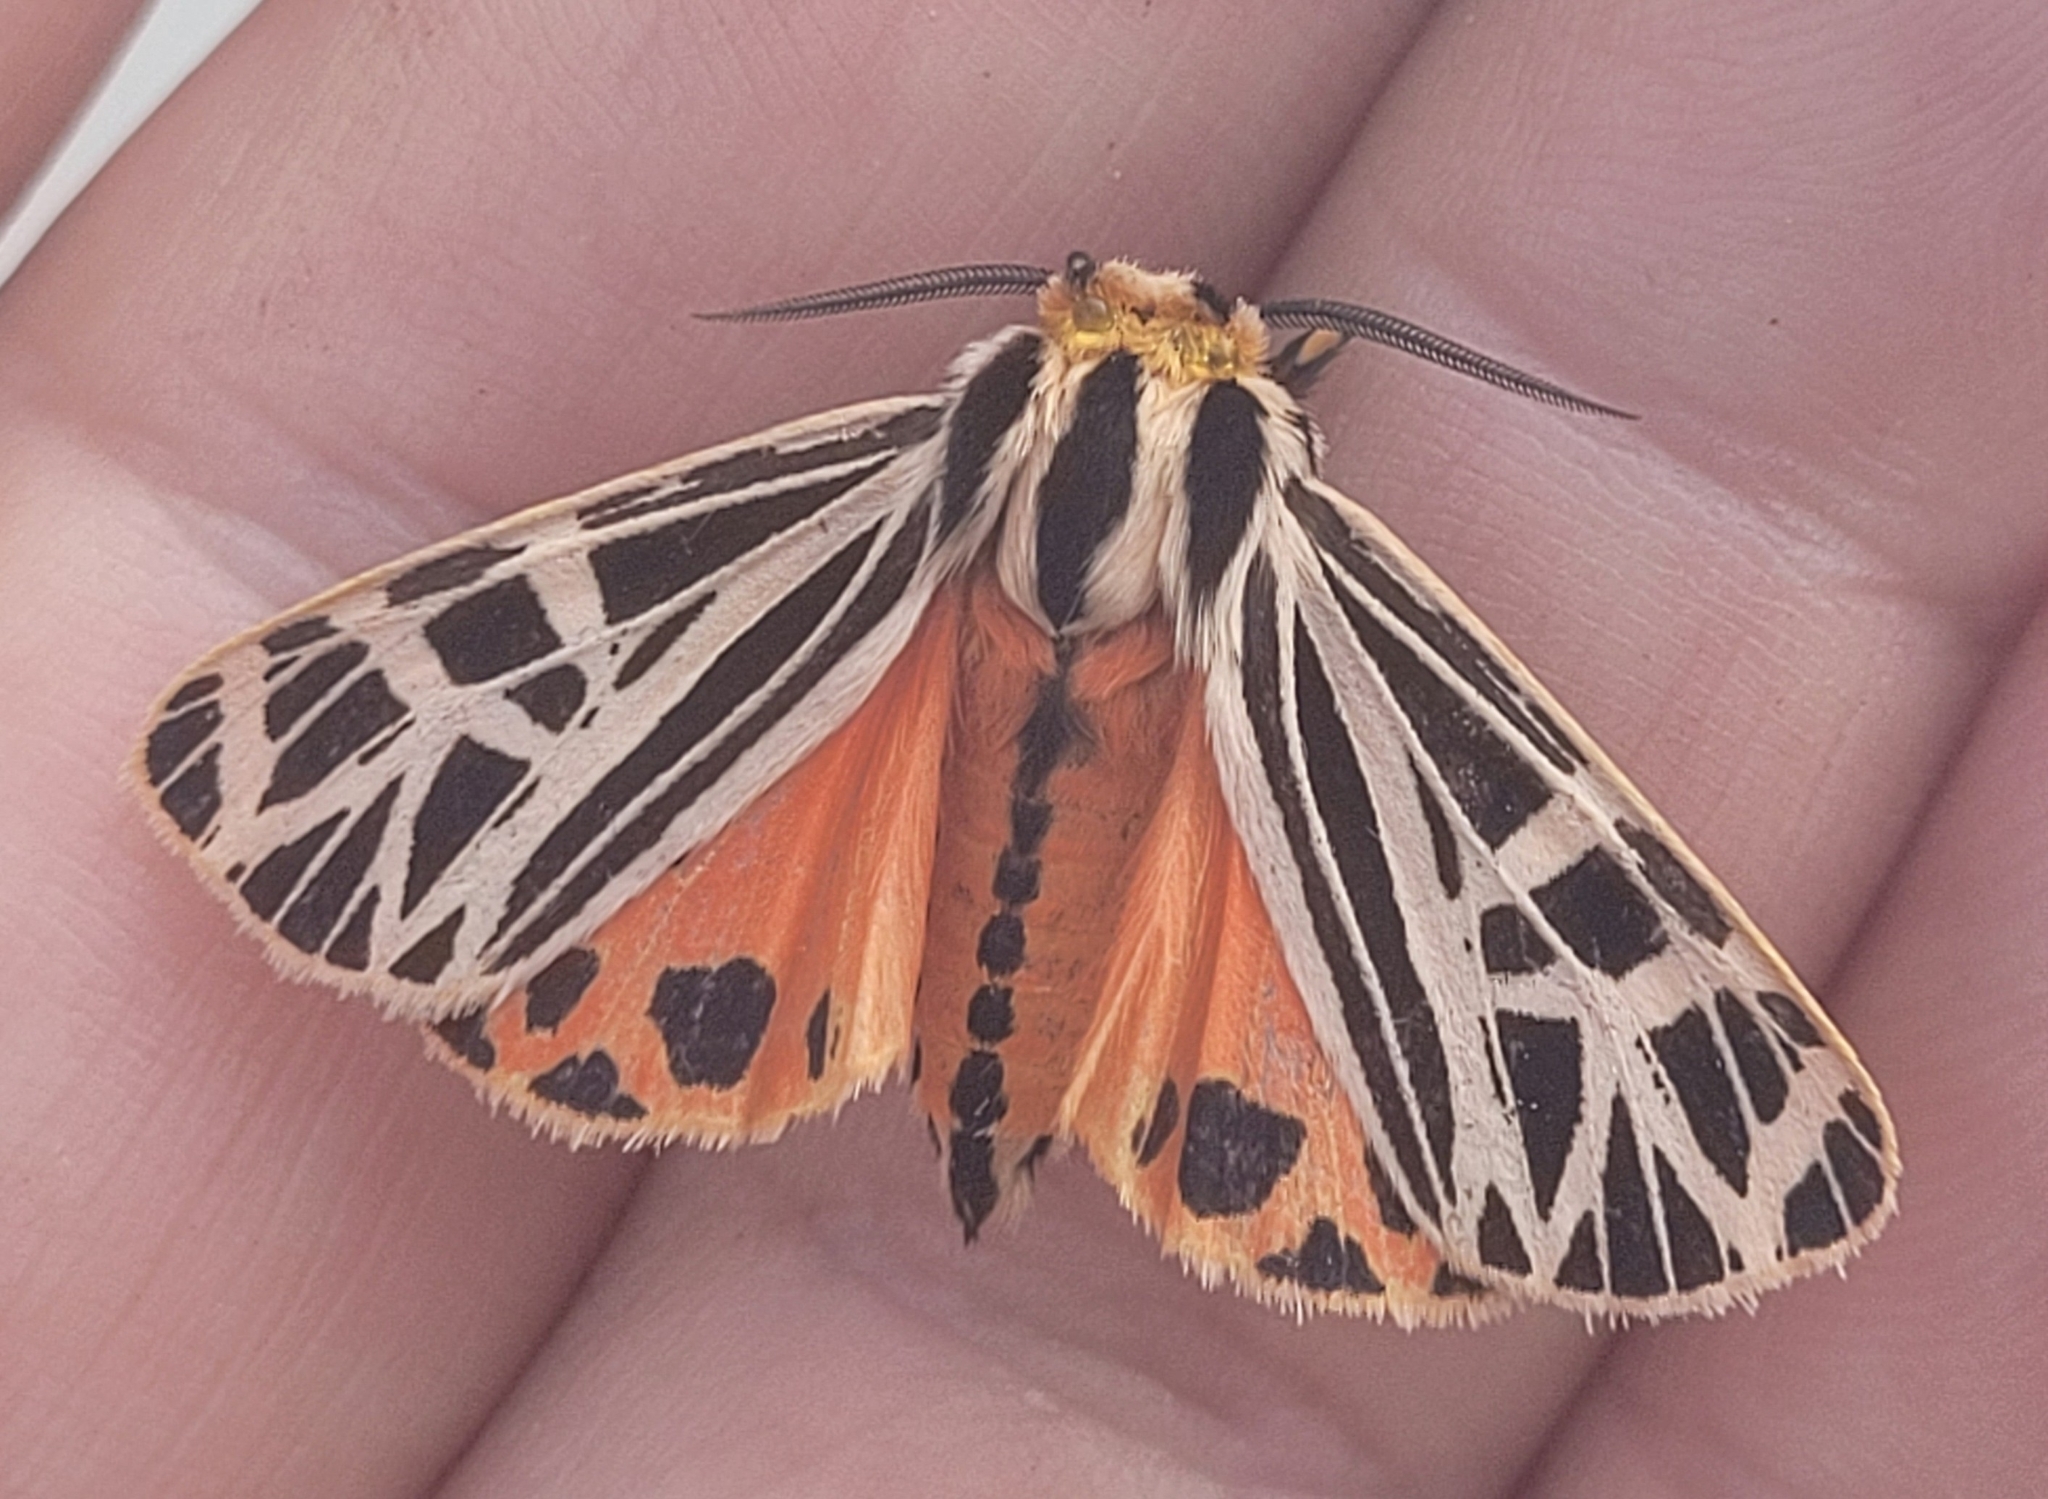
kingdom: Animalia
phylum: Arthropoda
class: Insecta
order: Lepidoptera
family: Erebidae
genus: Grammia
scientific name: Grammia parthenice
